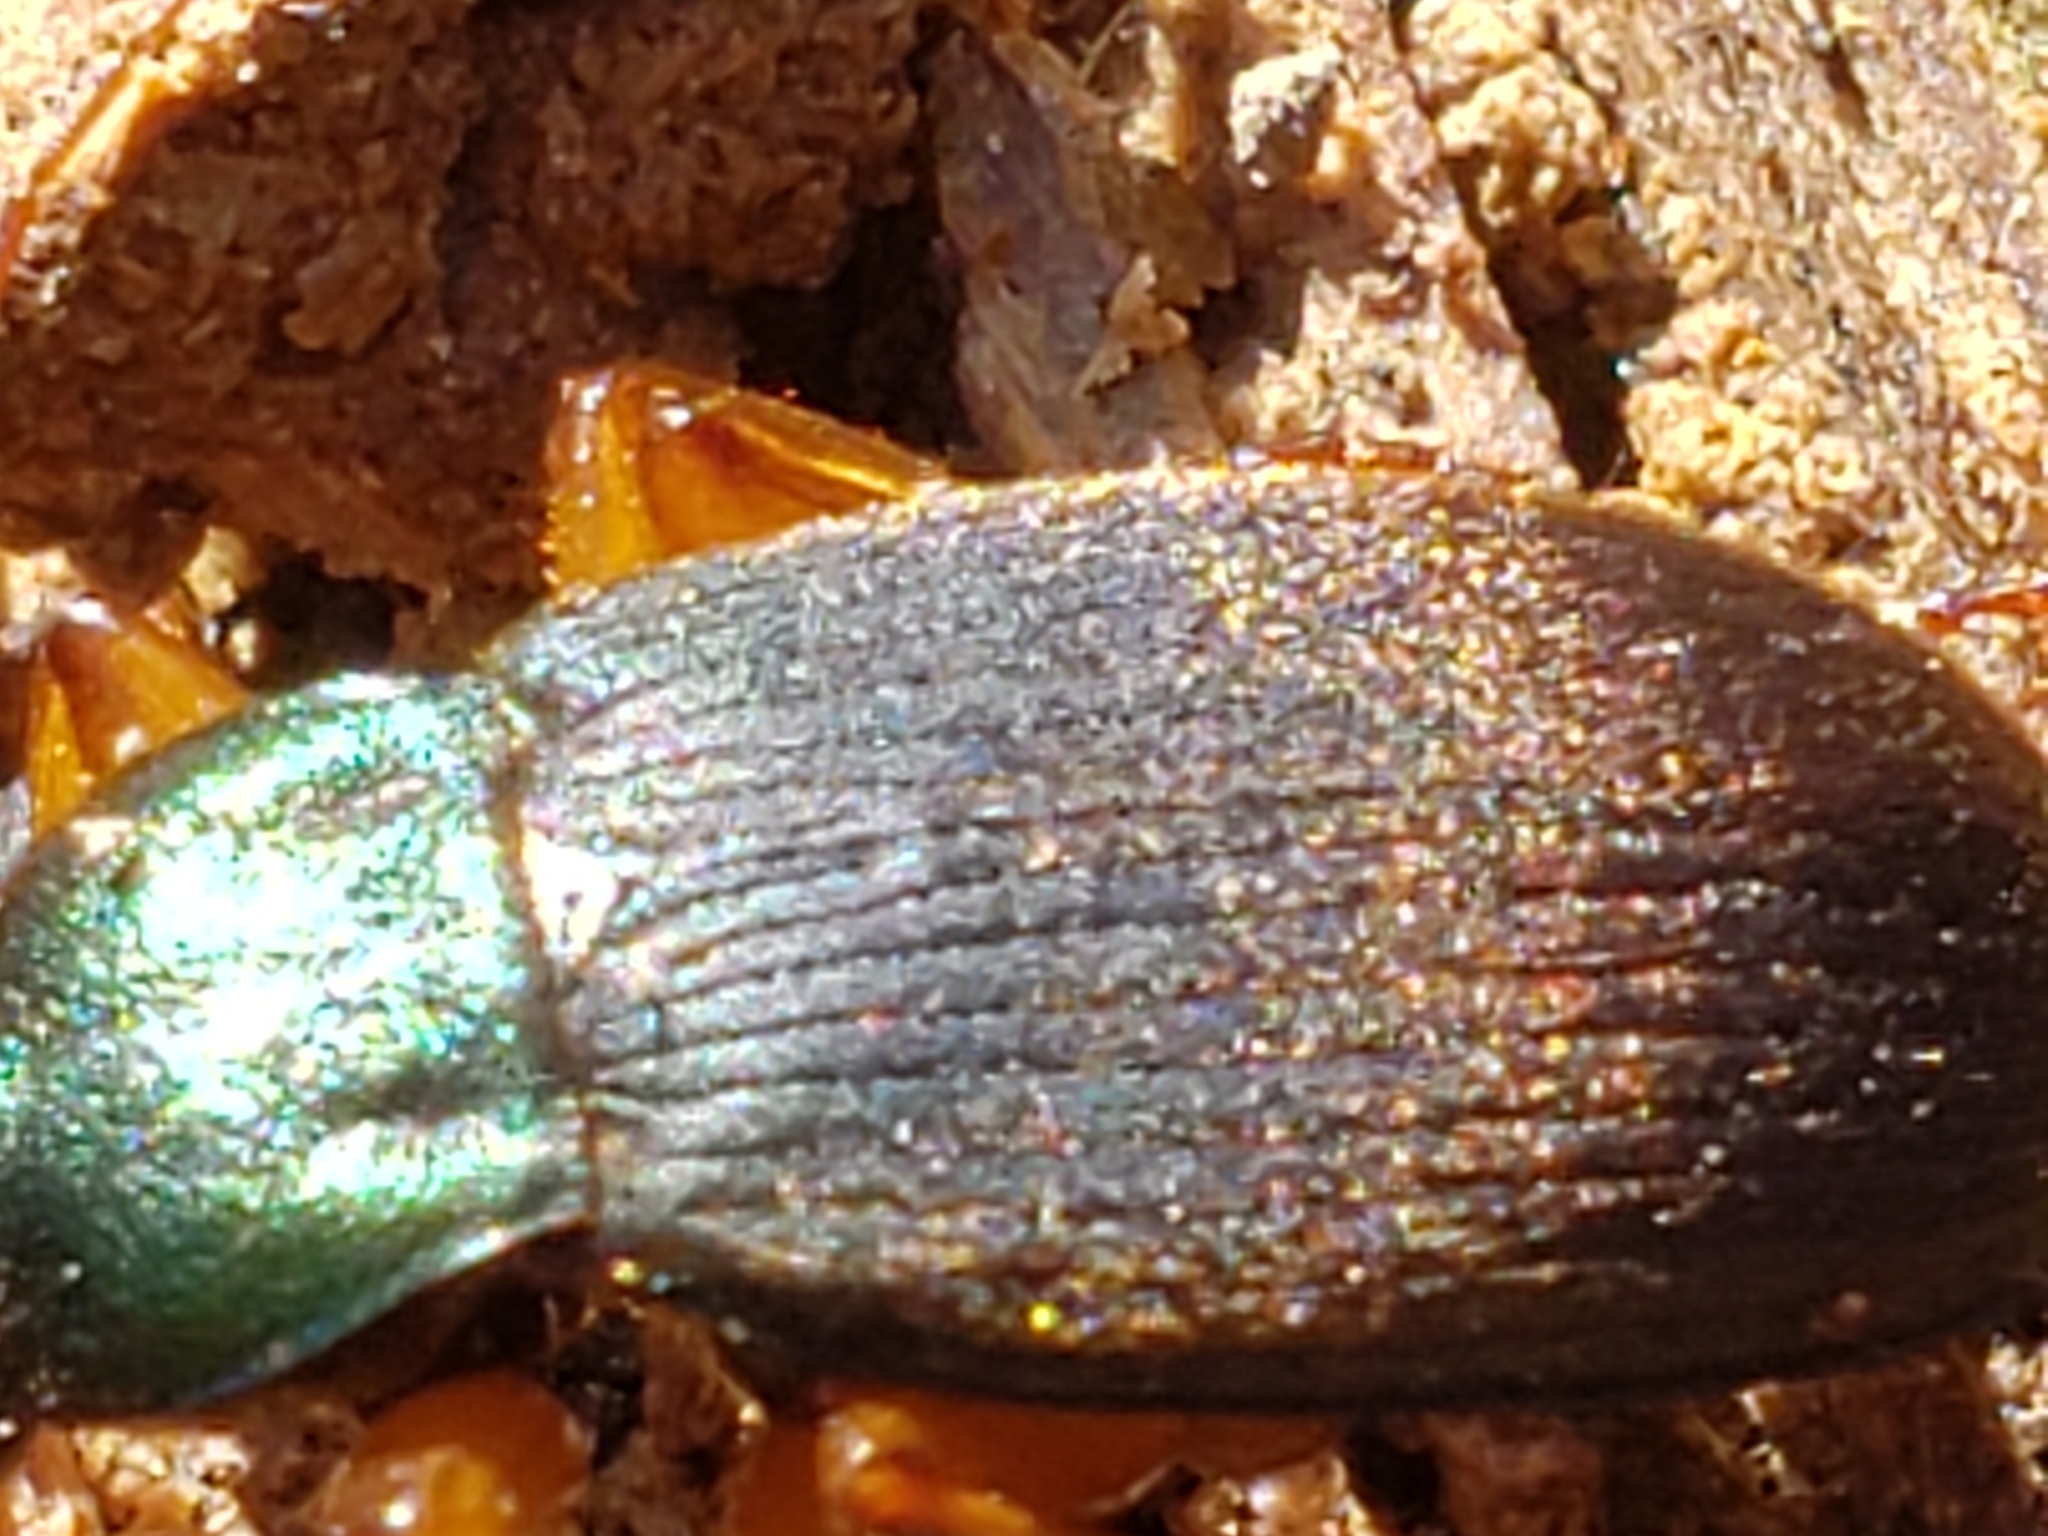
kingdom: Animalia
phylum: Arthropoda
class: Insecta
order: Coleoptera
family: Carabidae
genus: Chlaenius
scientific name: Chlaenius aestivus
